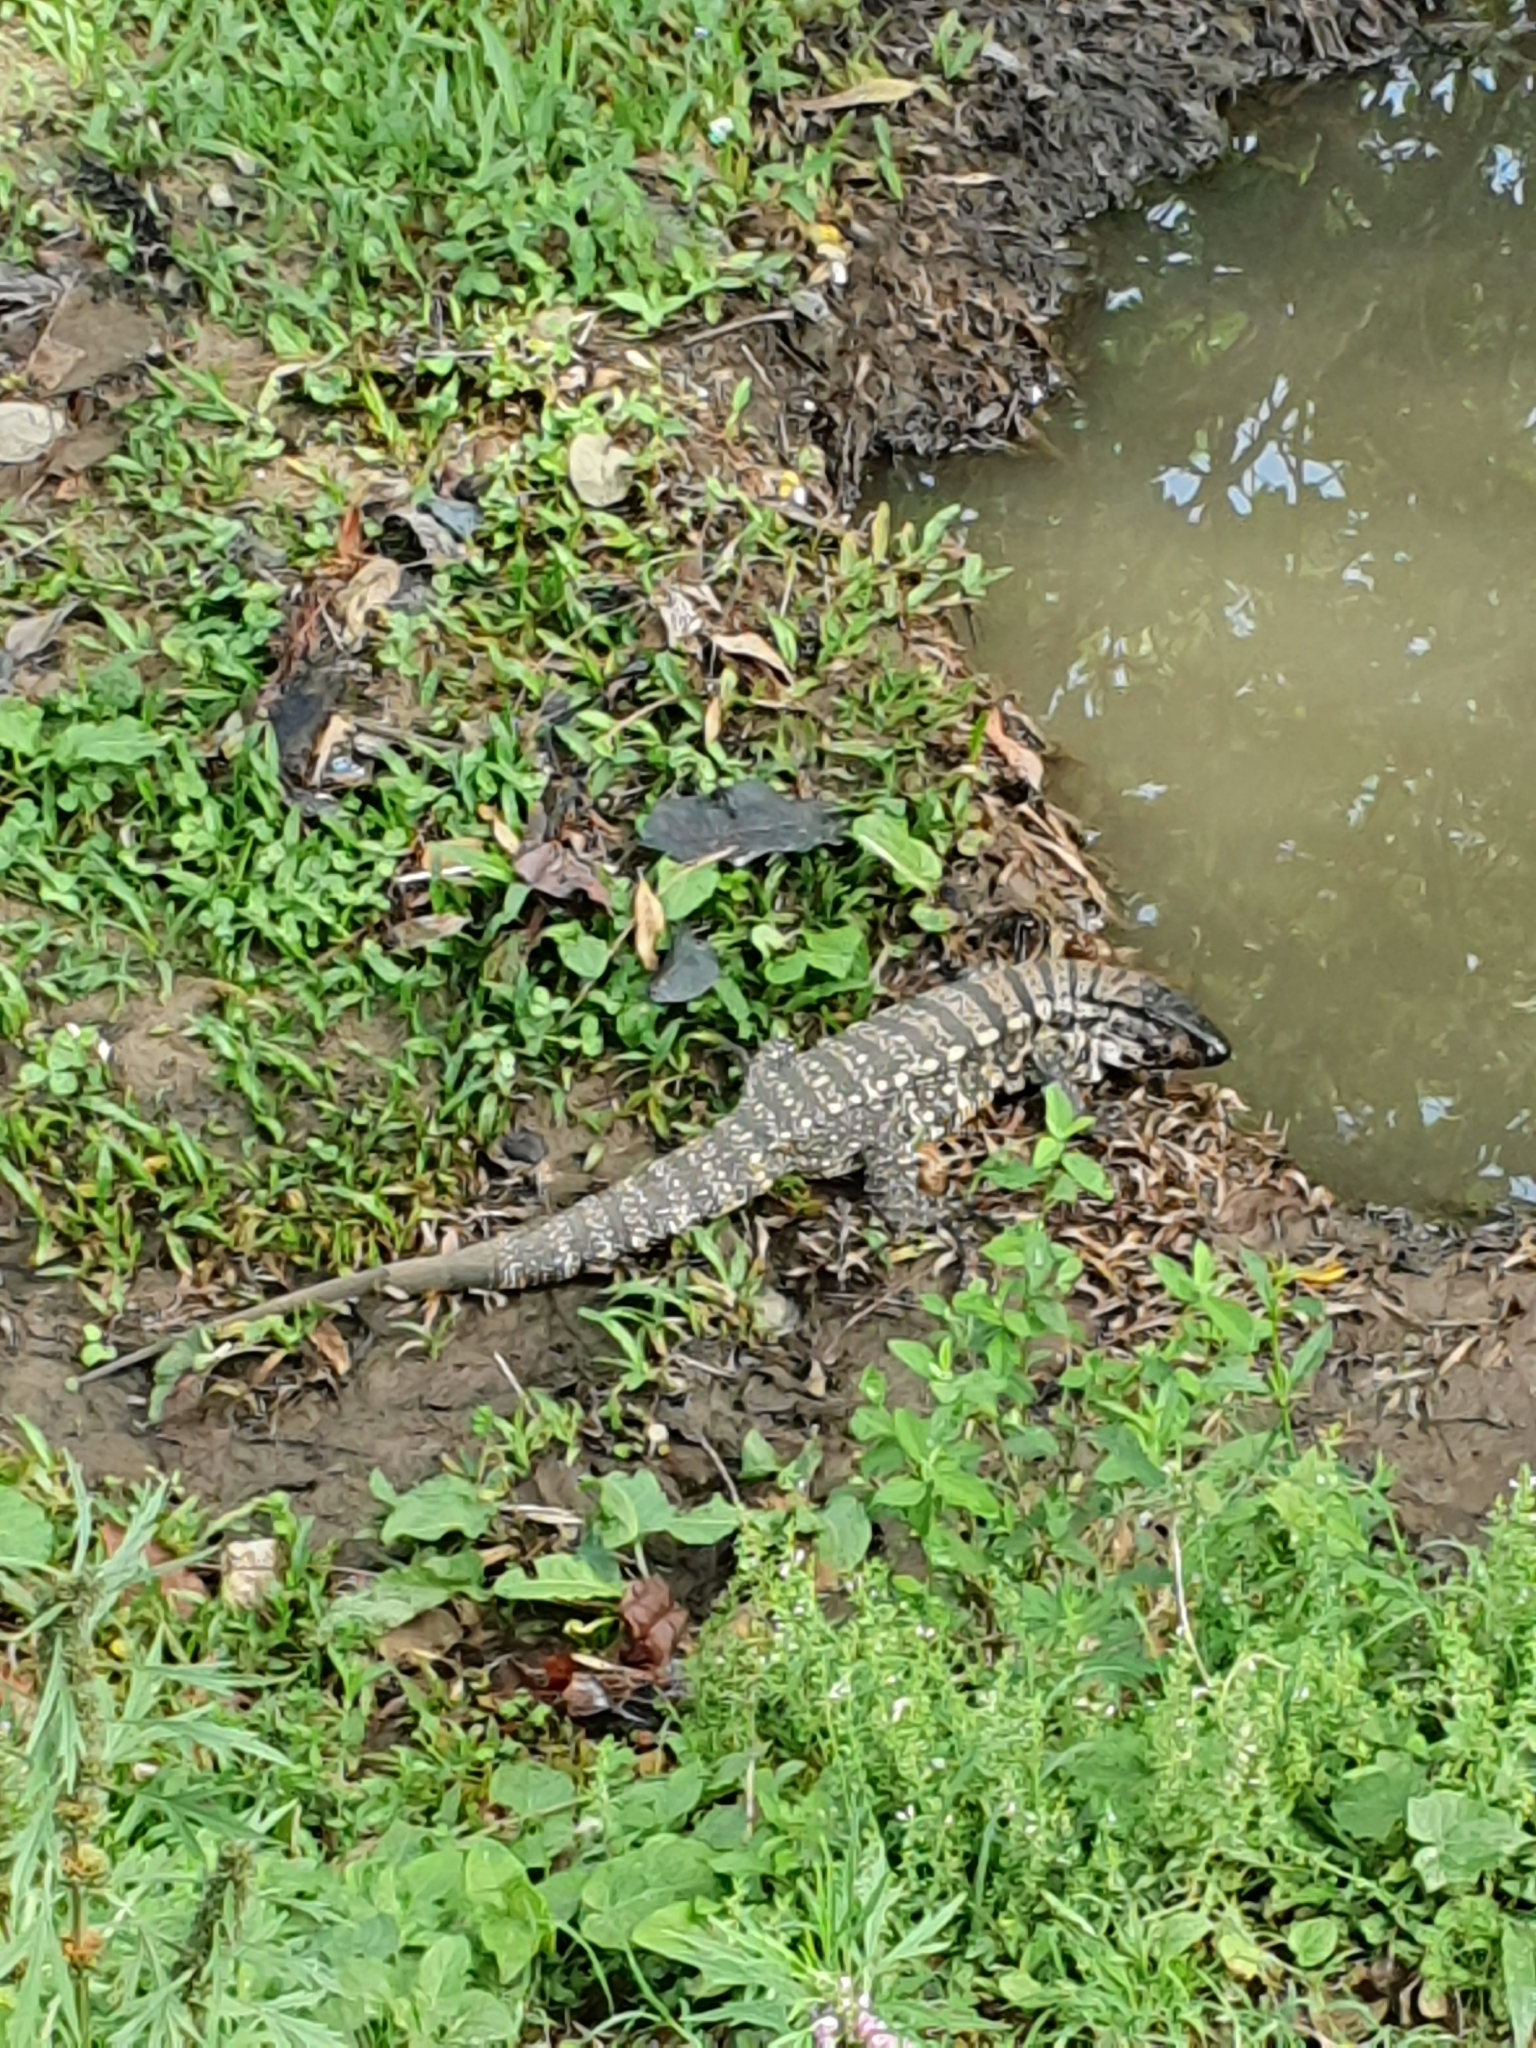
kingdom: Animalia
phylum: Chordata
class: Squamata
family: Teiidae
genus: Salvator
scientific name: Salvator merianae
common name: Argentine black and white tegu
